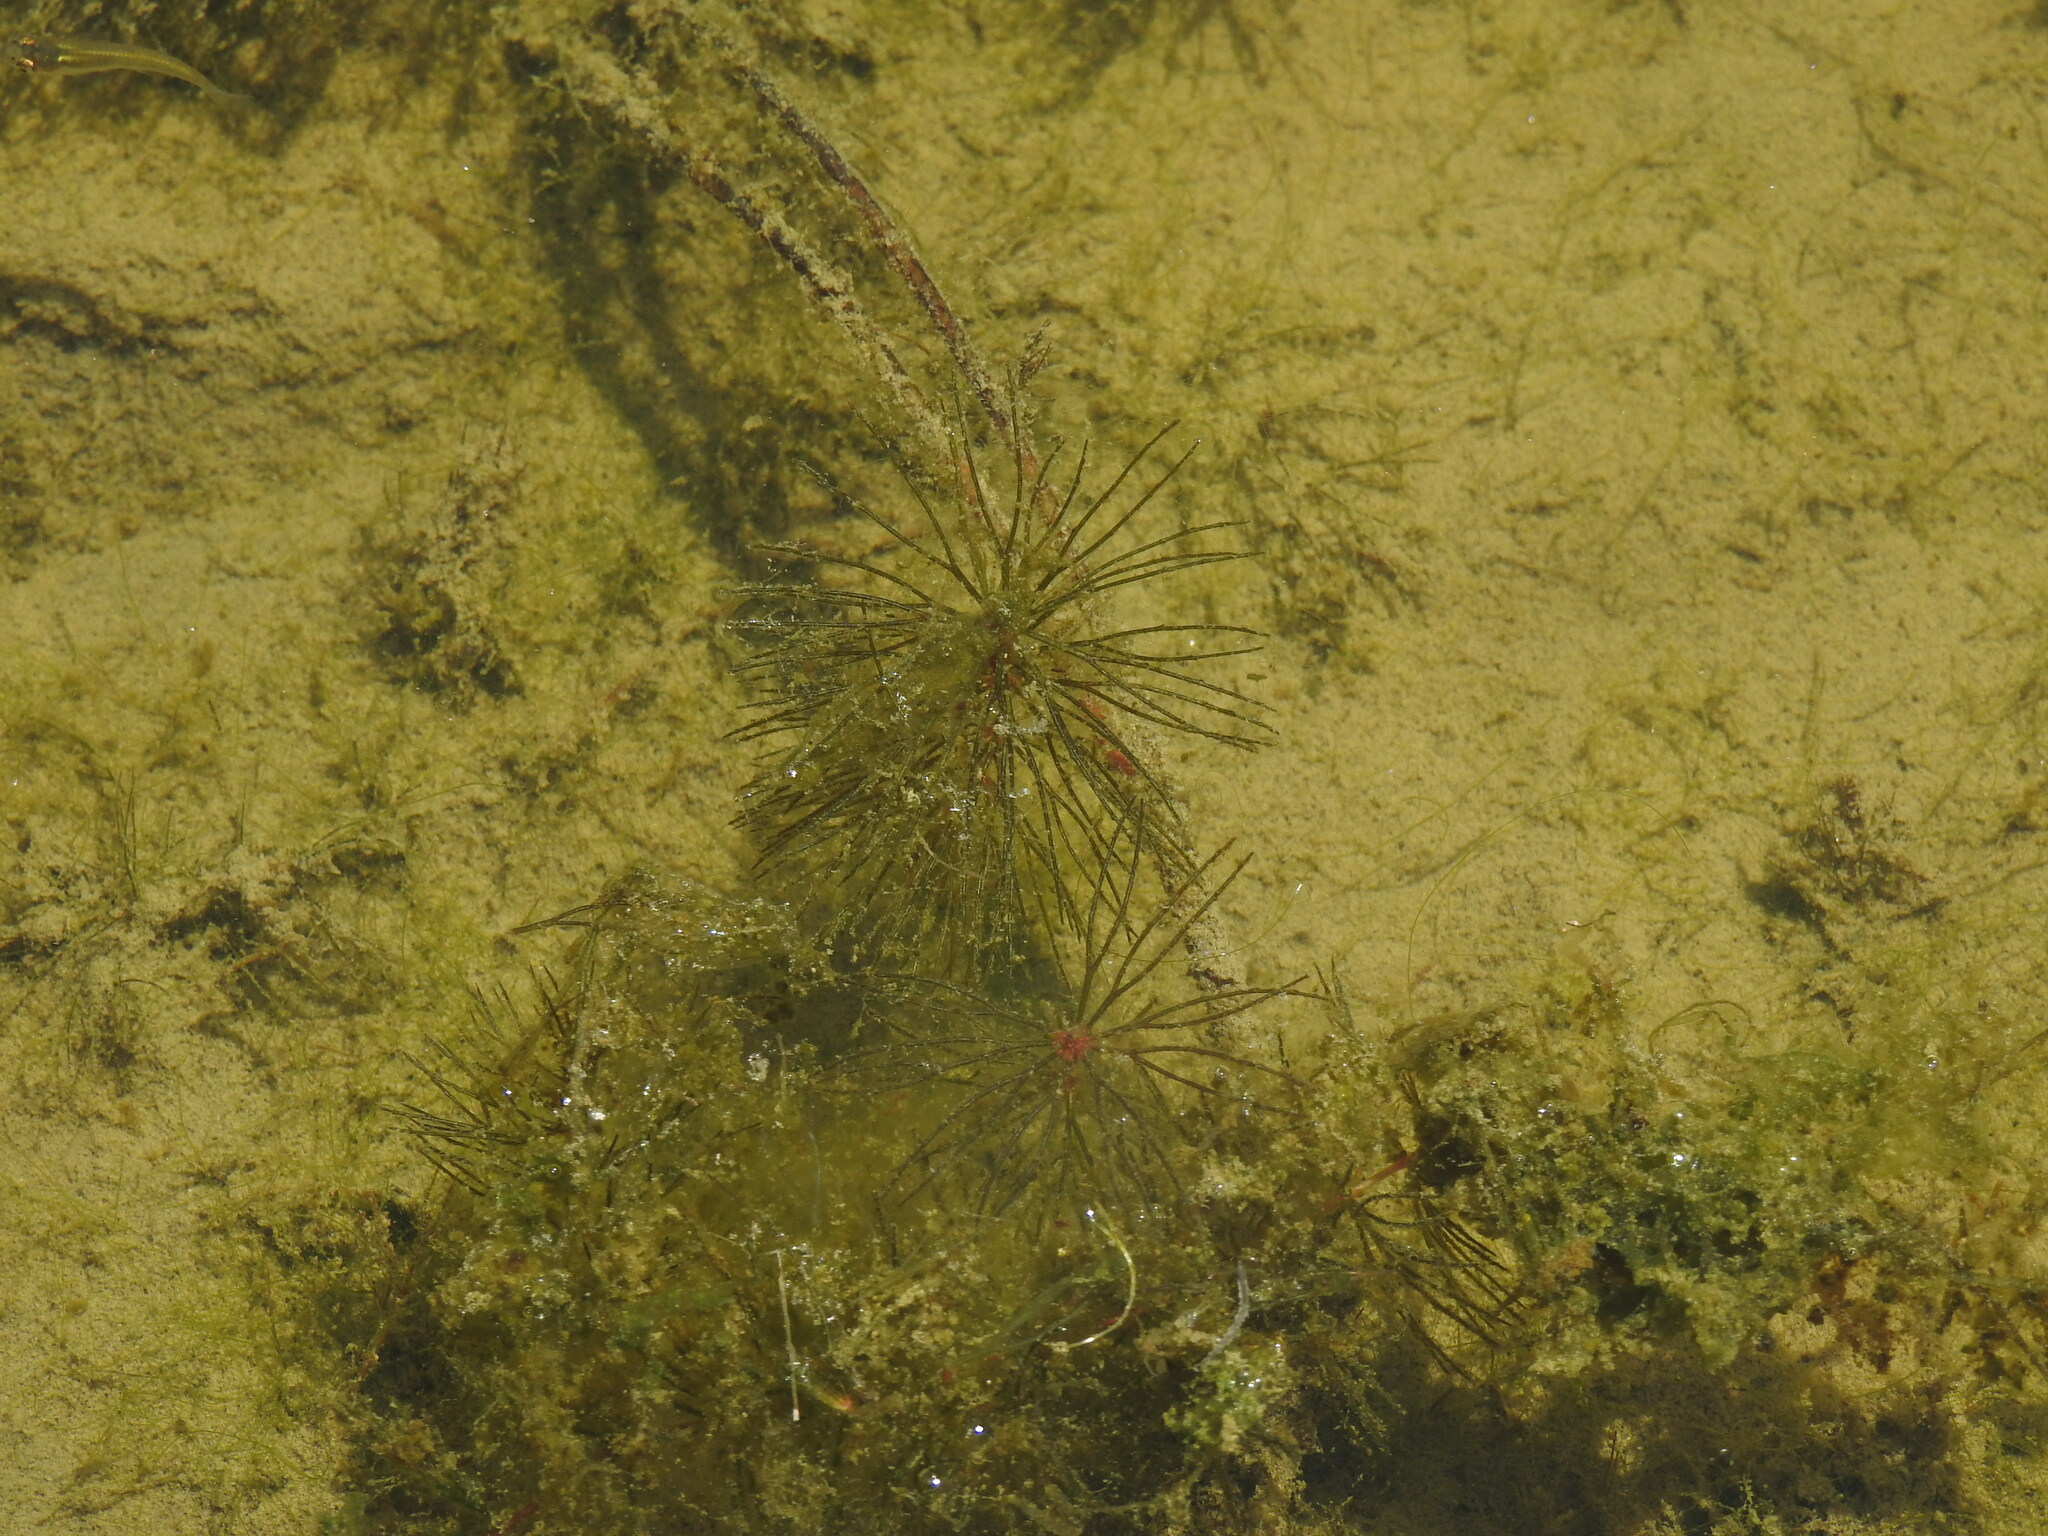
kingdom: Plantae
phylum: Tracheophyta
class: Magnoliopsida
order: Ceratophyllales
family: Ceratophyllaceae
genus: Ceratophyllum
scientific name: Ceratophyllum demersum
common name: Rigid hornwort
